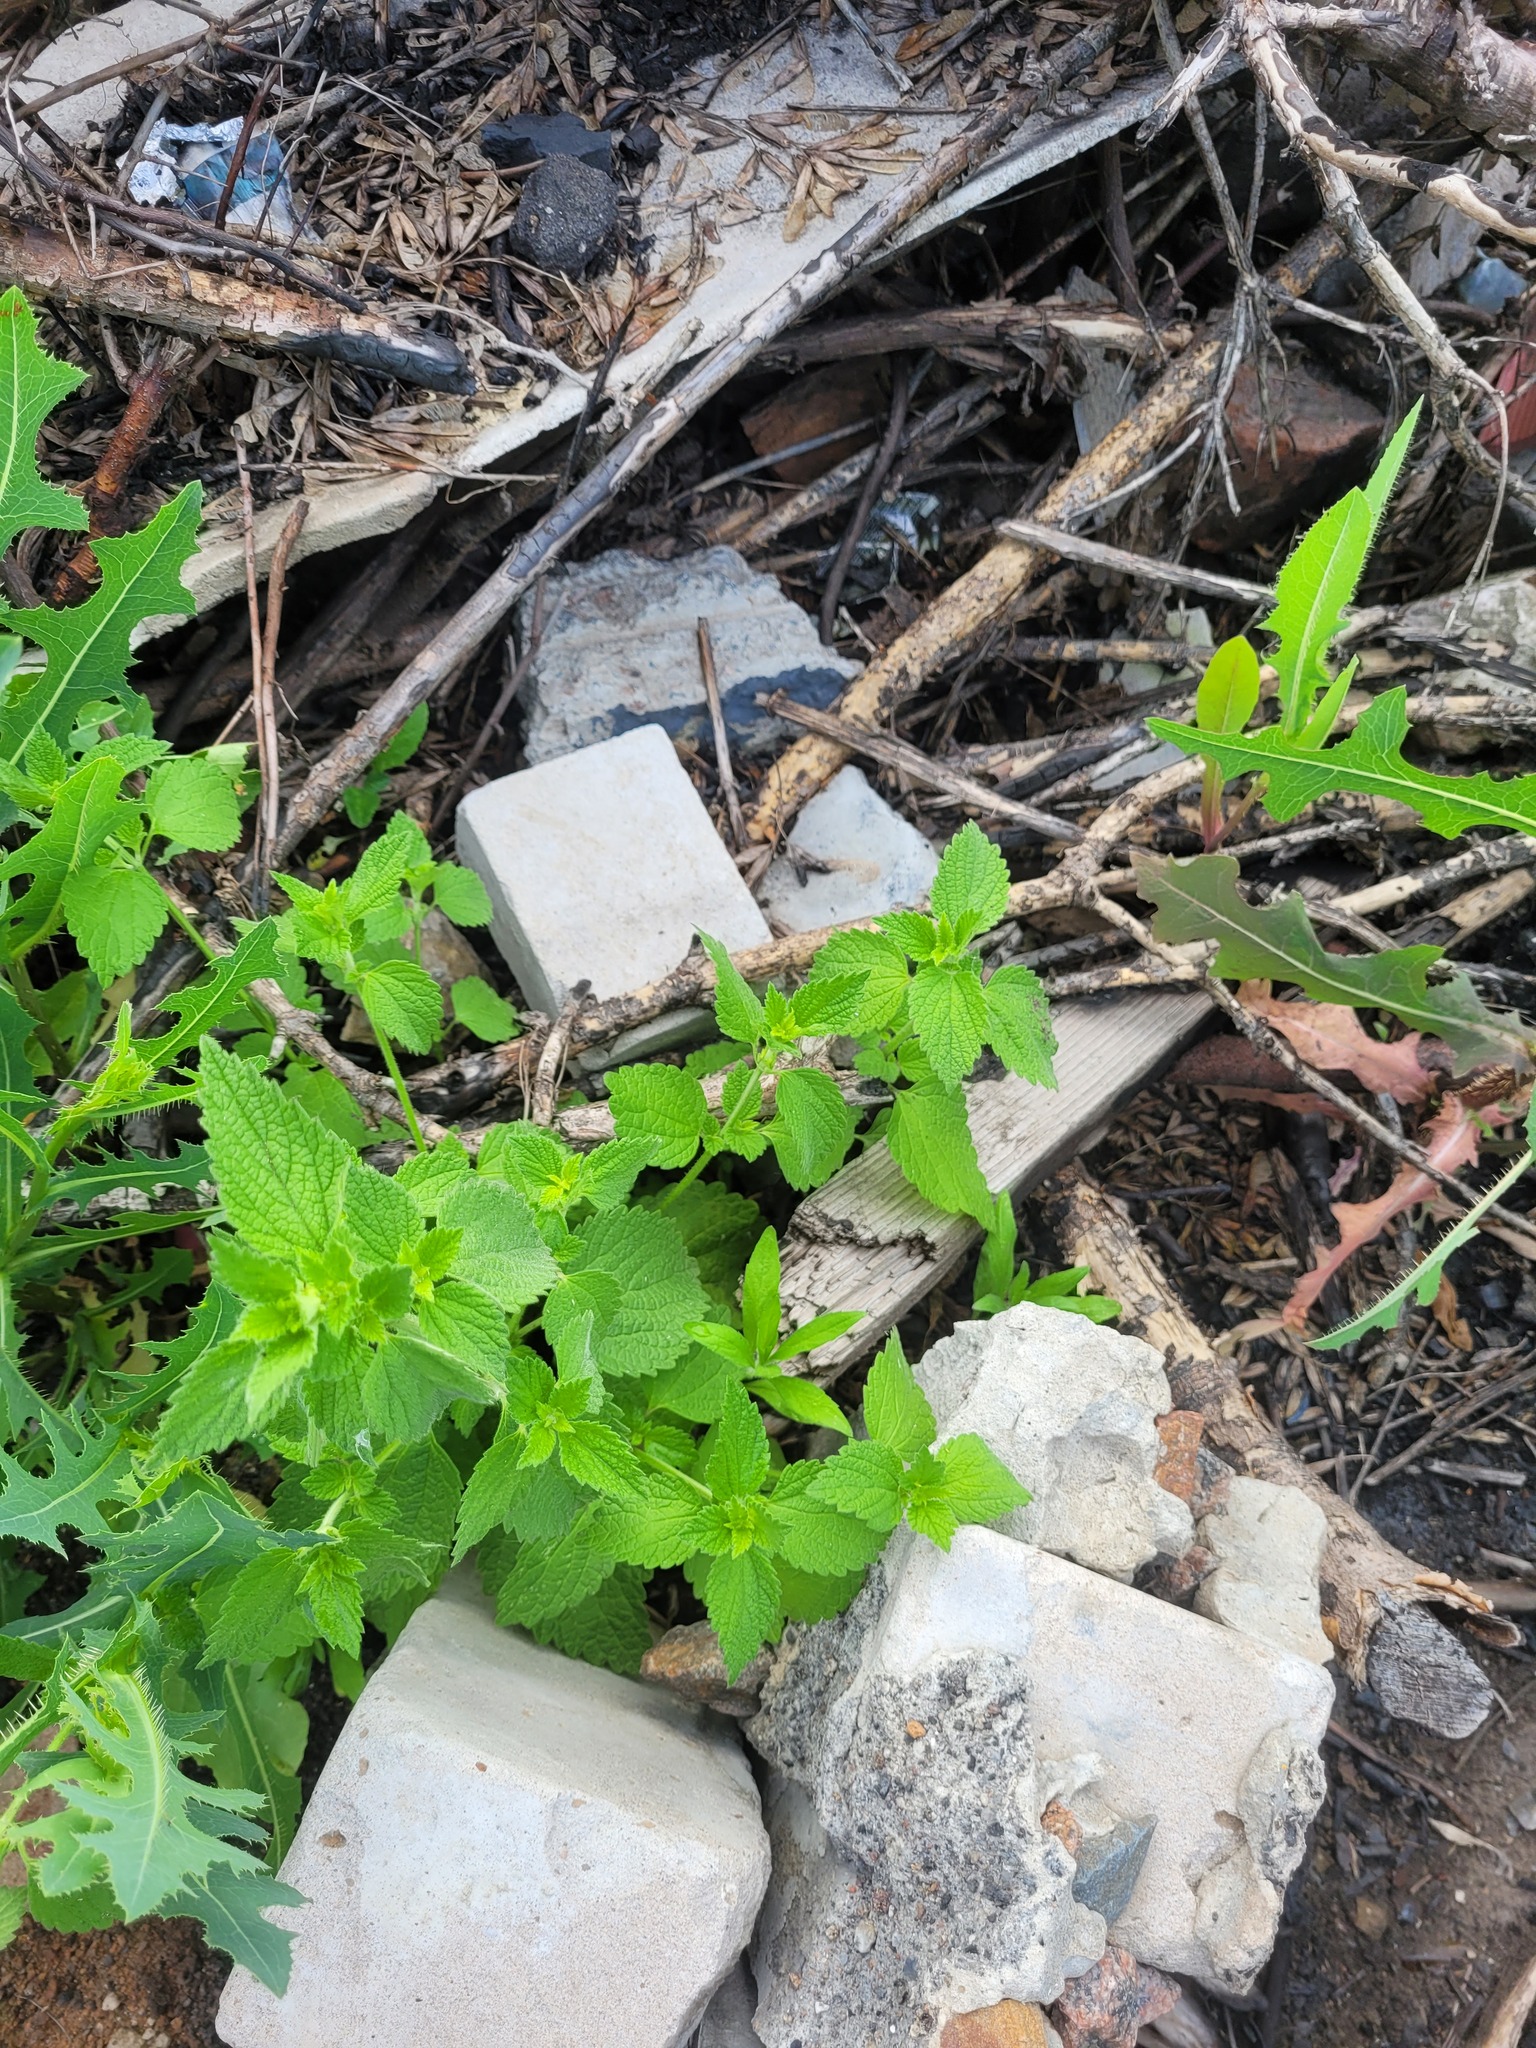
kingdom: Plantae
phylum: Tracheophyta
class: Magnoliopsida
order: Lamiales
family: Lamiaceae
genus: Ballota
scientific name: Ballota nigra
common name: Black horehound
